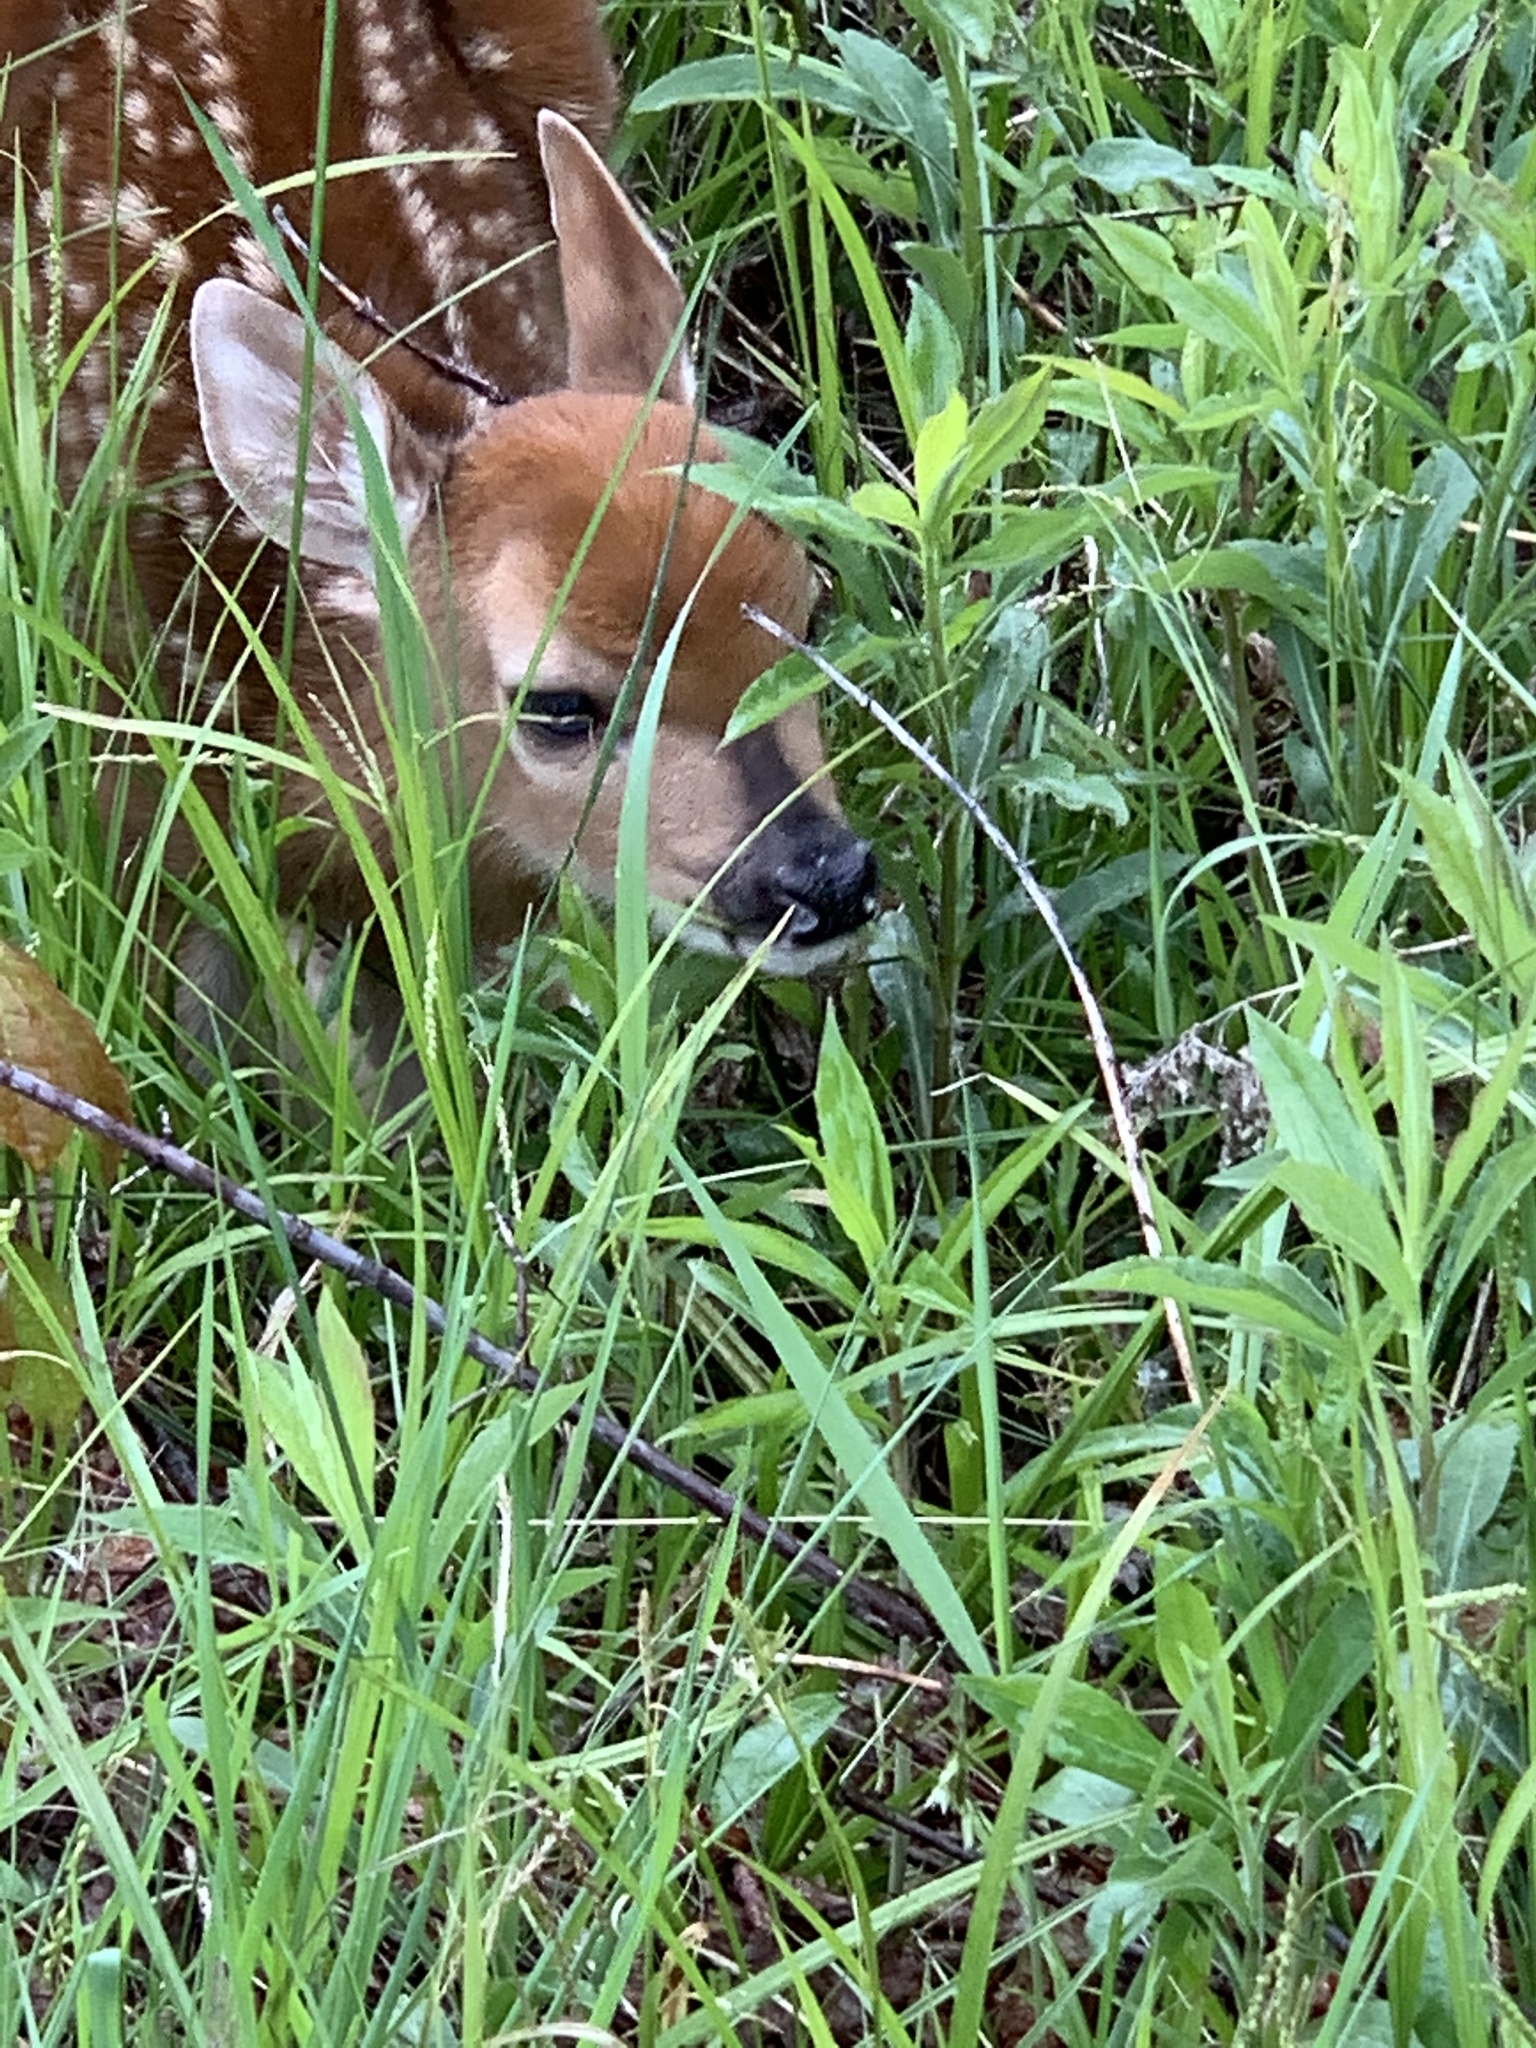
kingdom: Animalia
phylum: Chordata
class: Mammalia
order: Artiodactyla
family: Cervidae
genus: Odocoileus
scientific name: Odocoileus virginianus
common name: White-tailed deer
